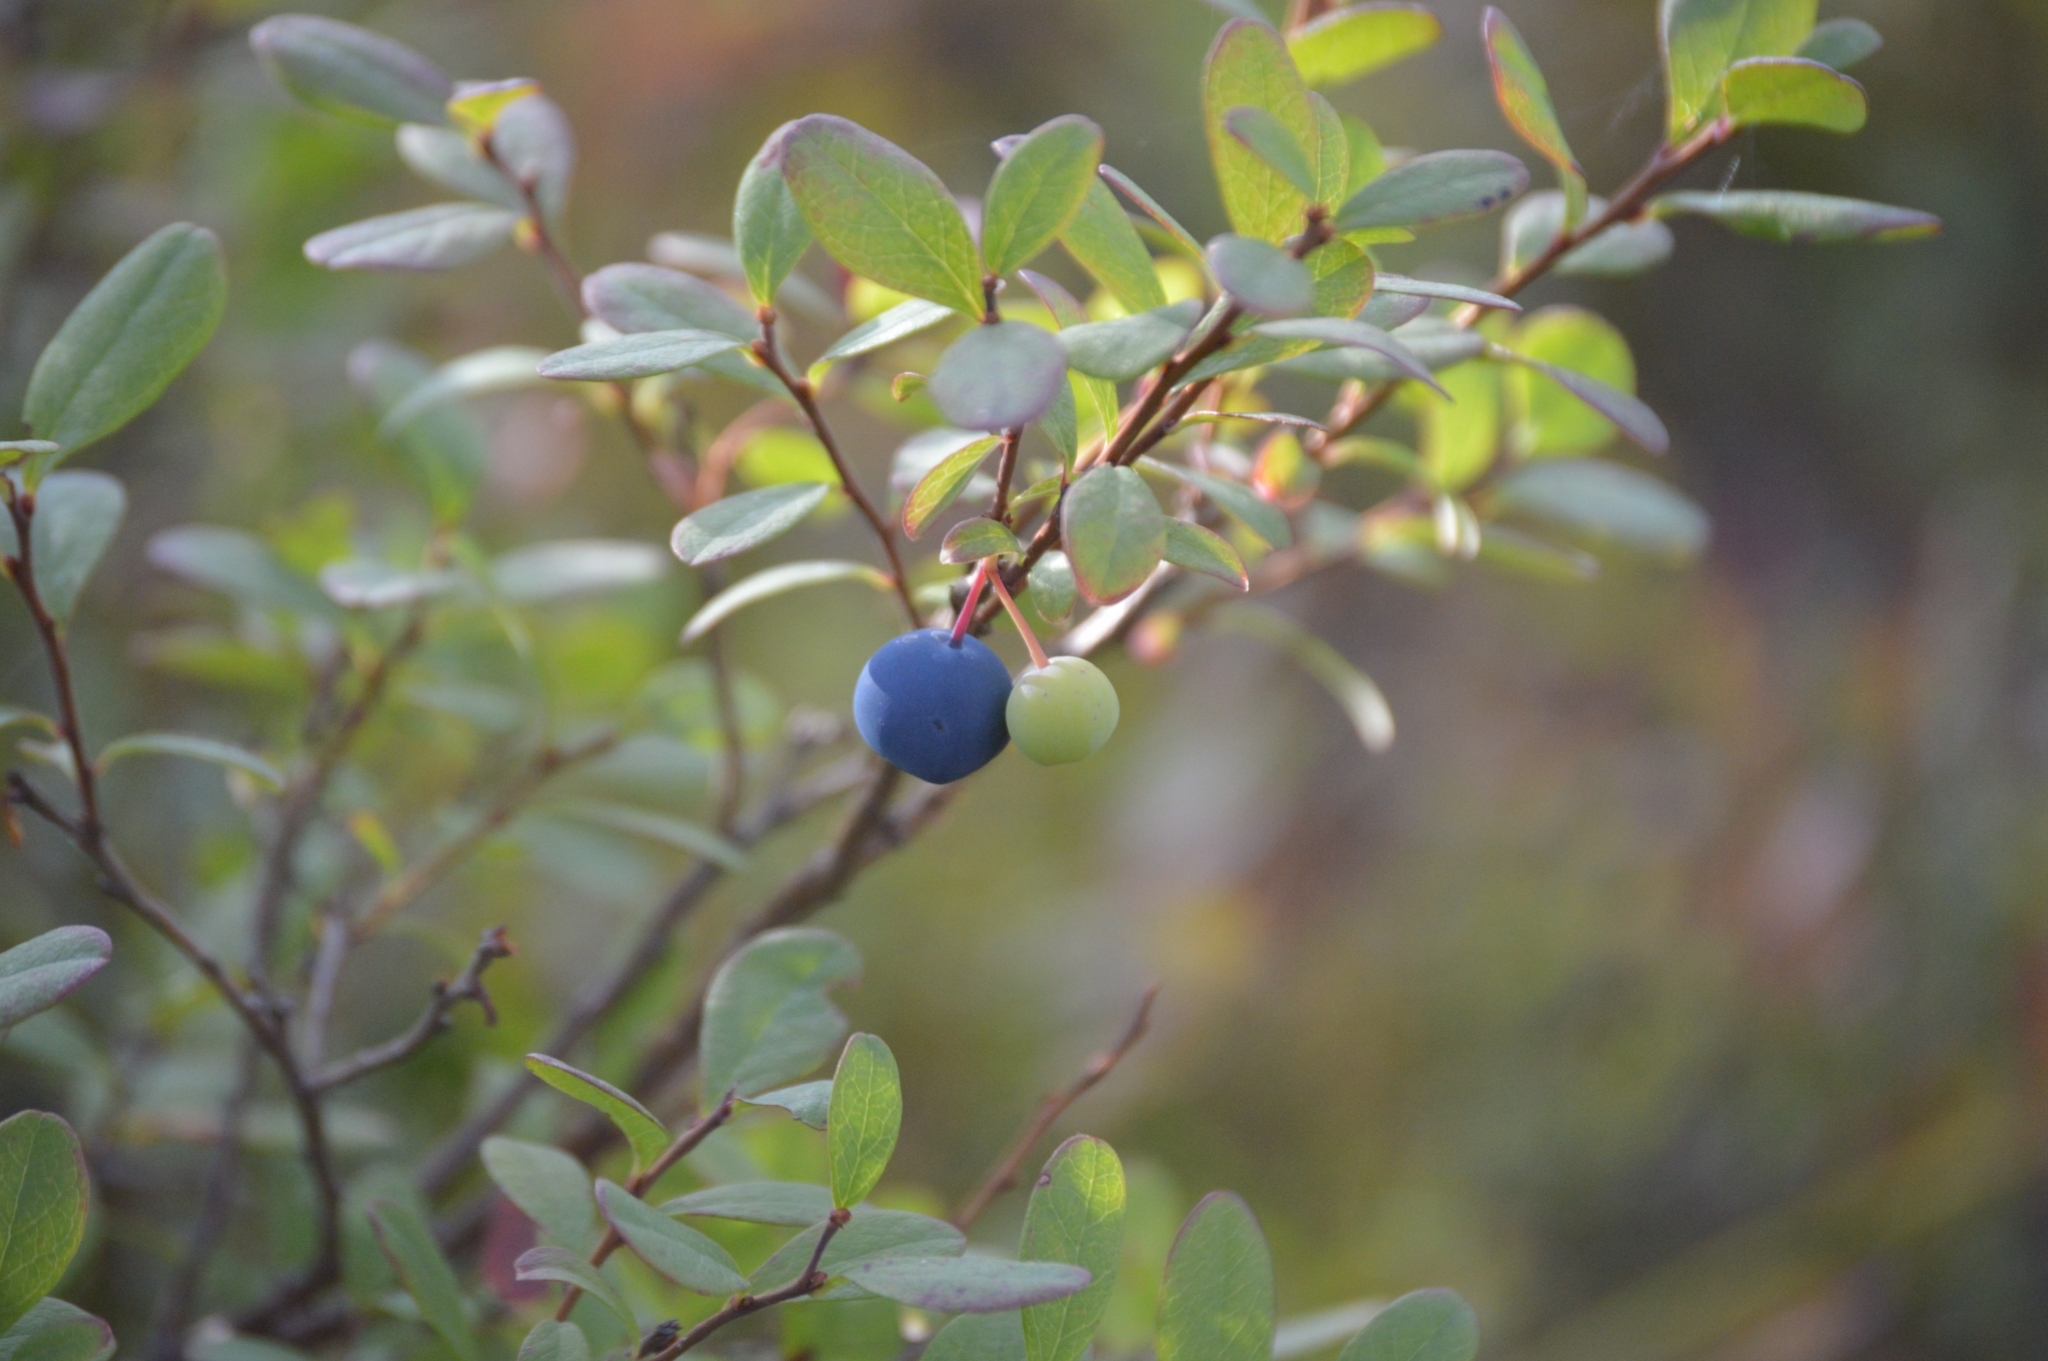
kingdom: Plantae
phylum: Tracheophyta
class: Magnoliopsida
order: Ericales
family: Ericaceae
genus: Vaccinium
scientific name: Vaccinium uliginosum
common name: Bog bilberry
